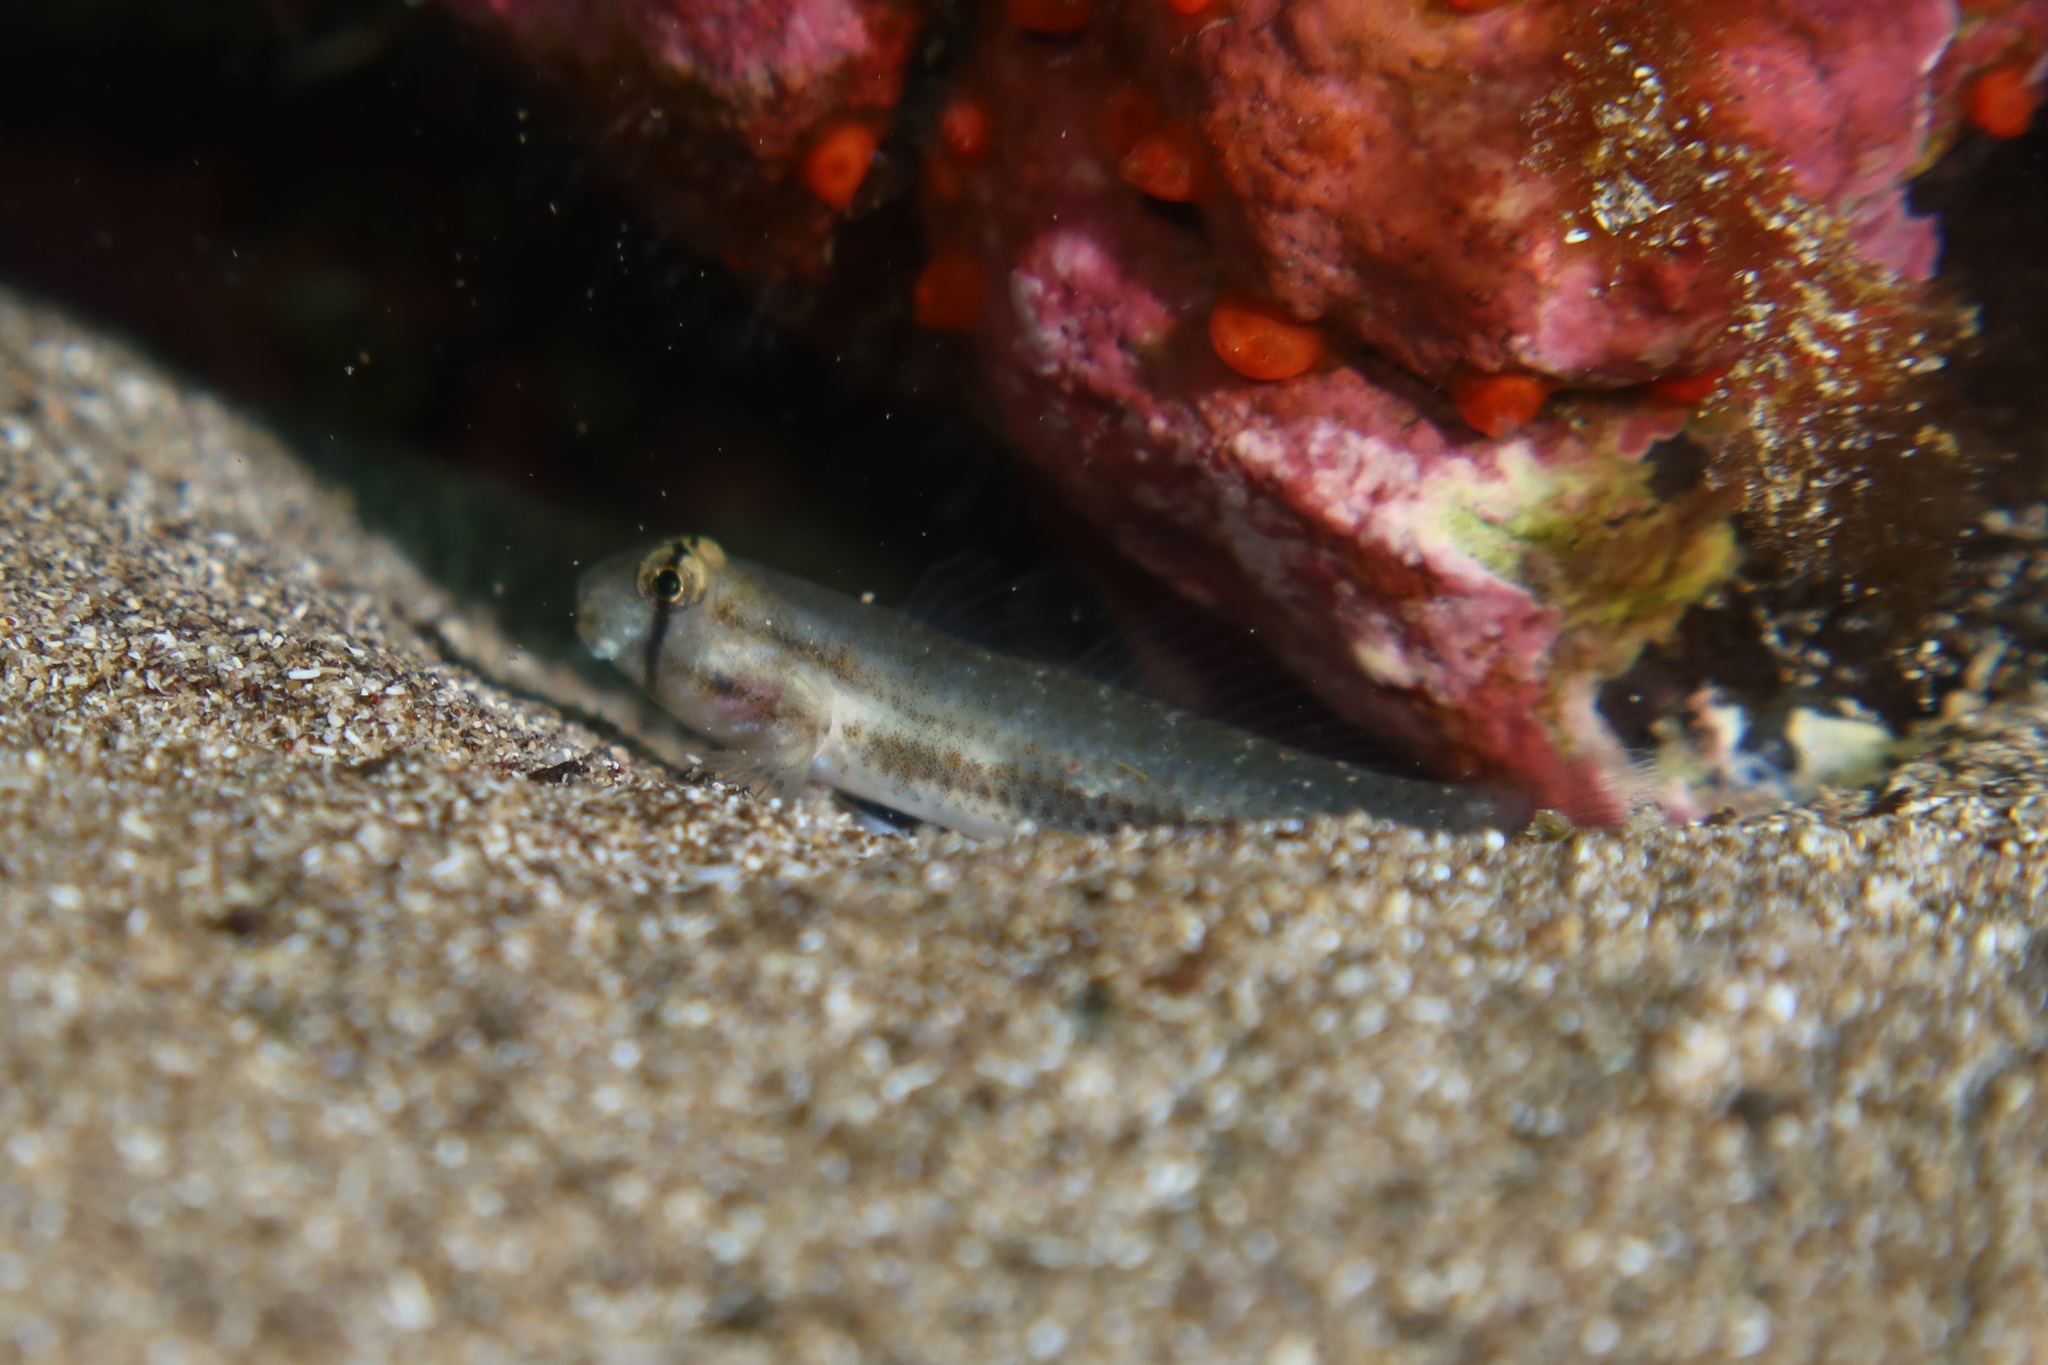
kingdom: Animalia
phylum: Chordata
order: Perciformes
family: Gobiidae
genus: Gnatholepis
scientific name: Gnatholepis thompsoni
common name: Goldspot goby
